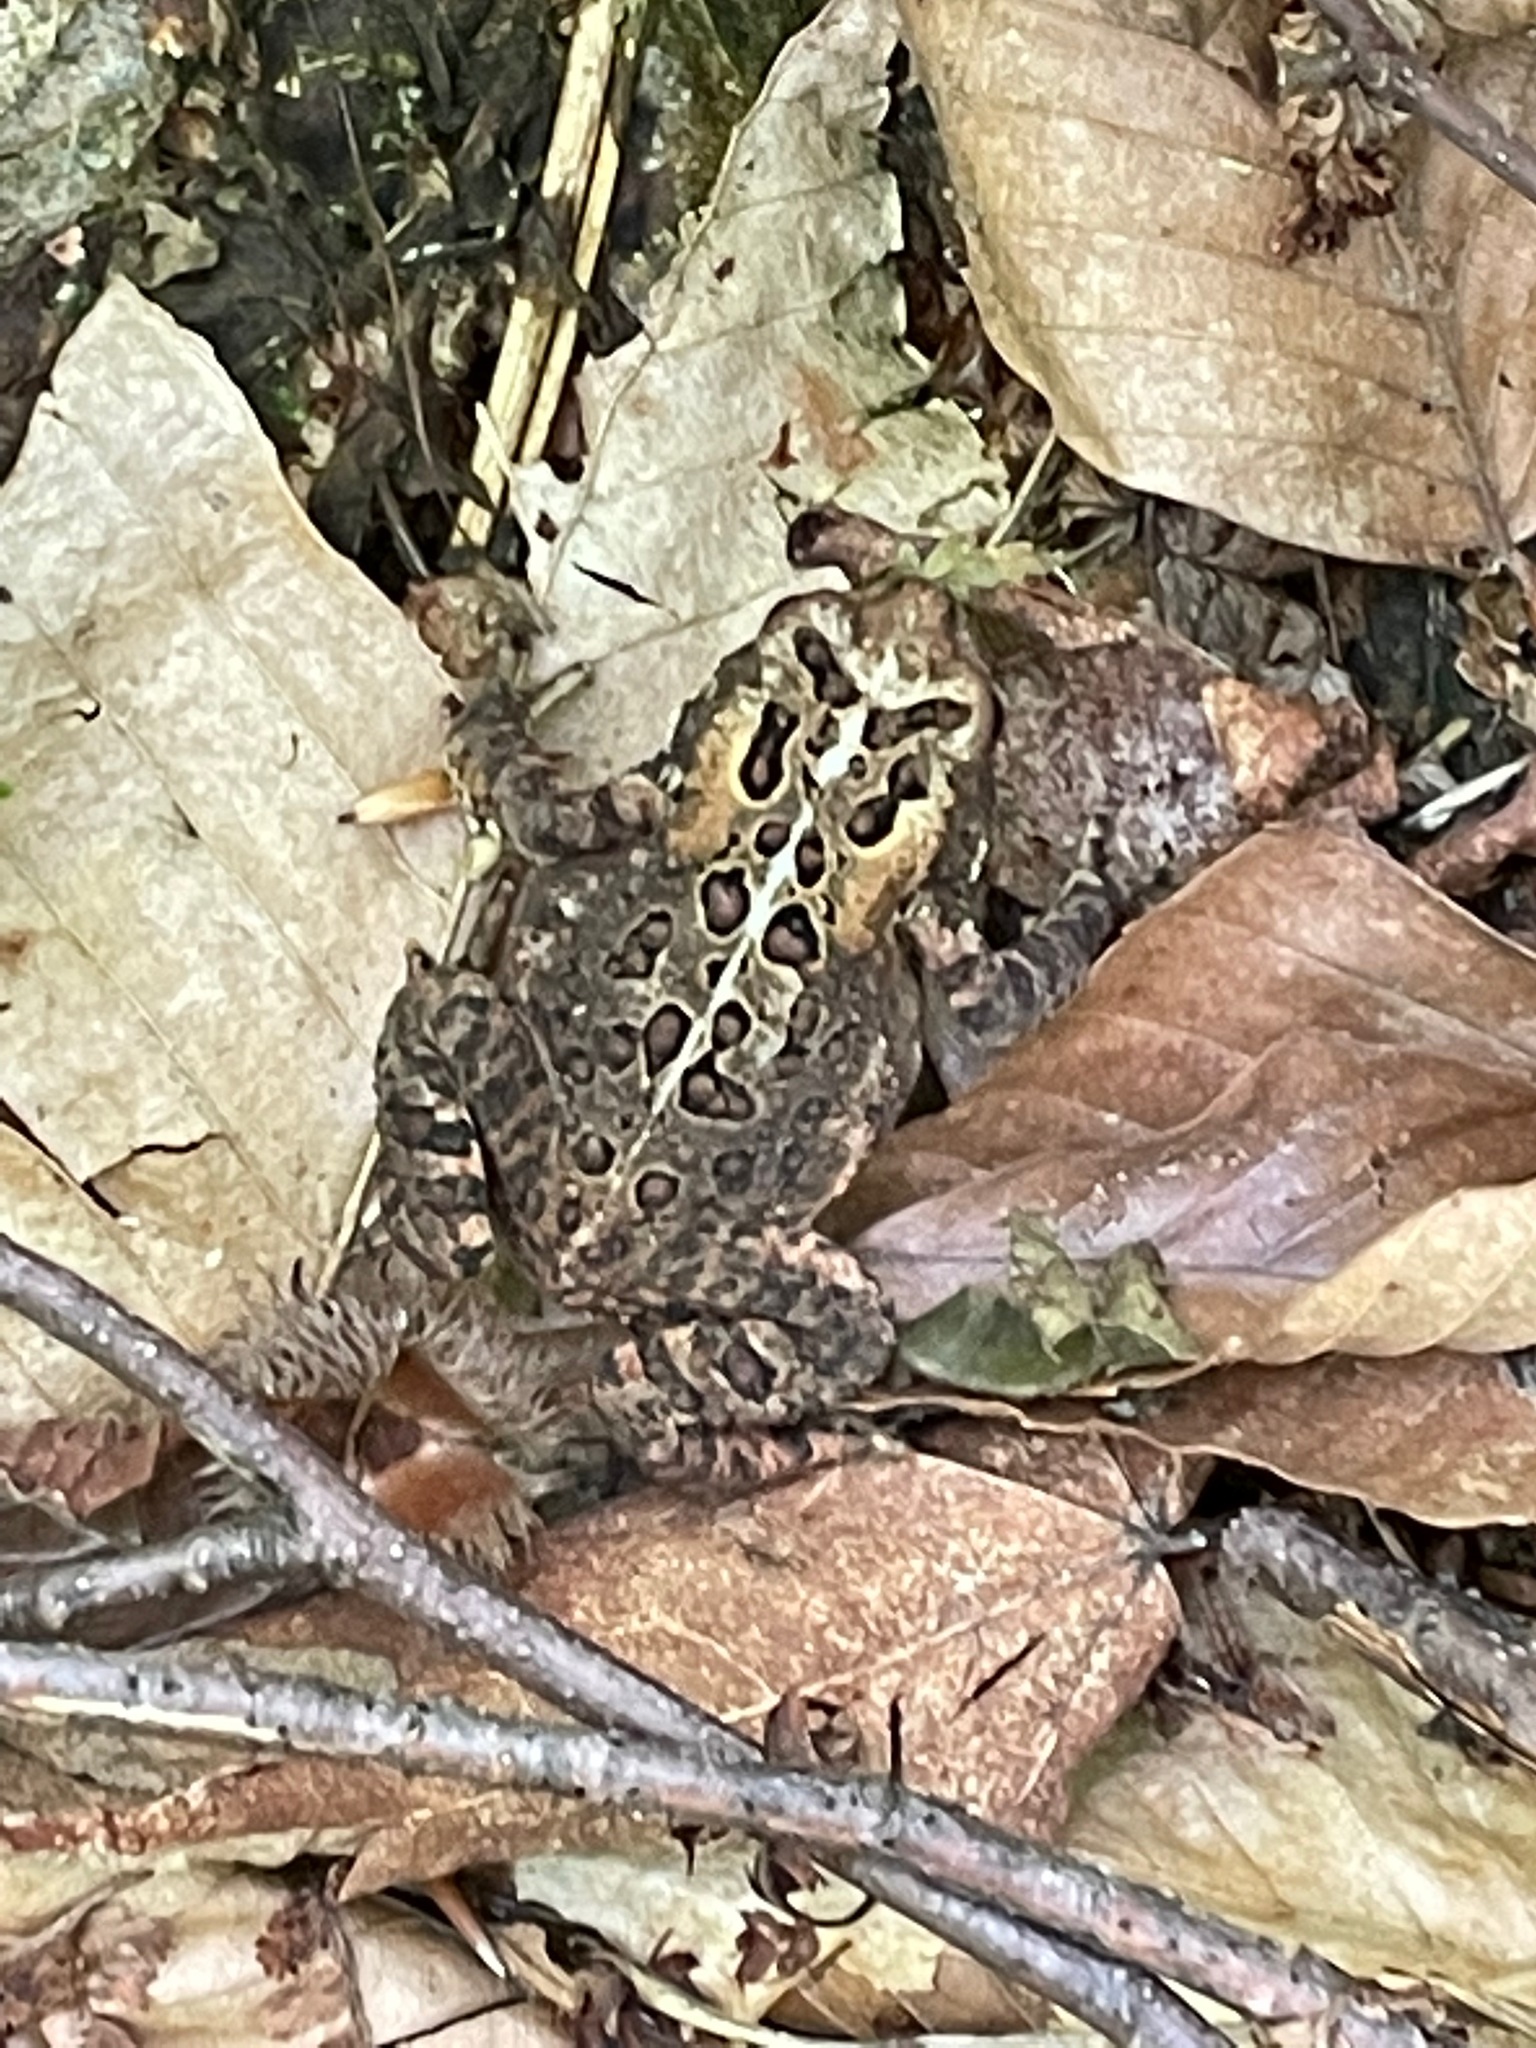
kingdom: Animalia
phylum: Chordata
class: Amphibia
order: Anura
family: Bufonidae
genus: Anaxyrus
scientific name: Anaxyrus americanus
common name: American toad
